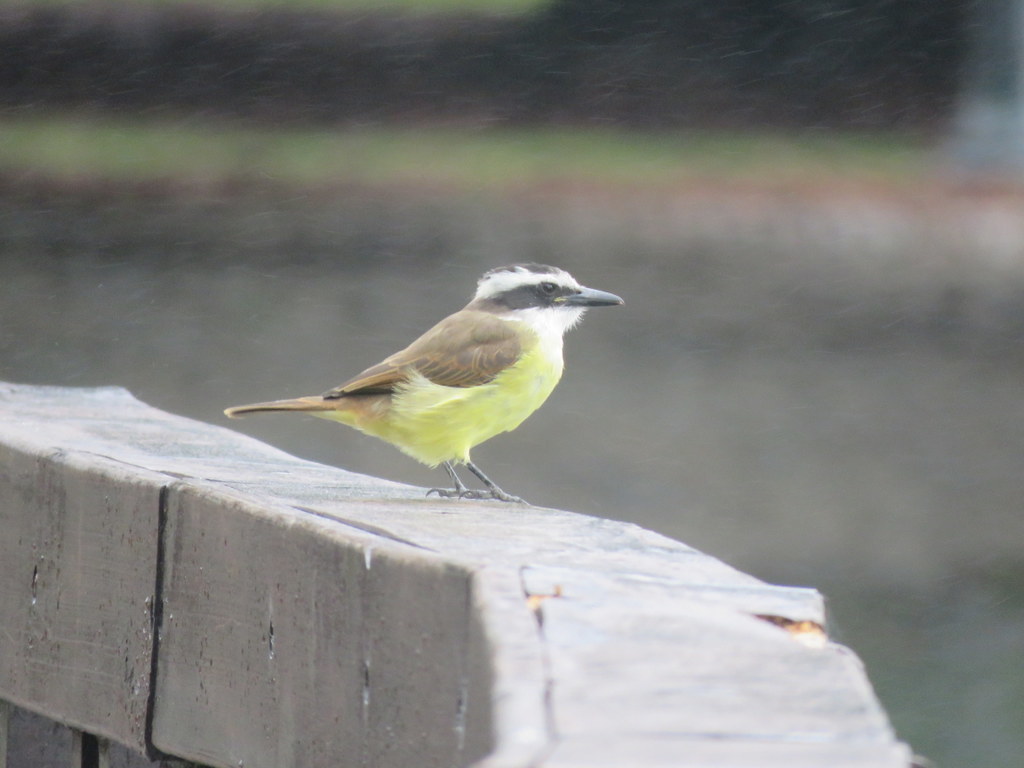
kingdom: Animalia
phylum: Chordata
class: Aves
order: Passeriformes
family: Tyrannidae
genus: Pitangus
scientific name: Pitangus sulphuratus
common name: Great kiskadee
